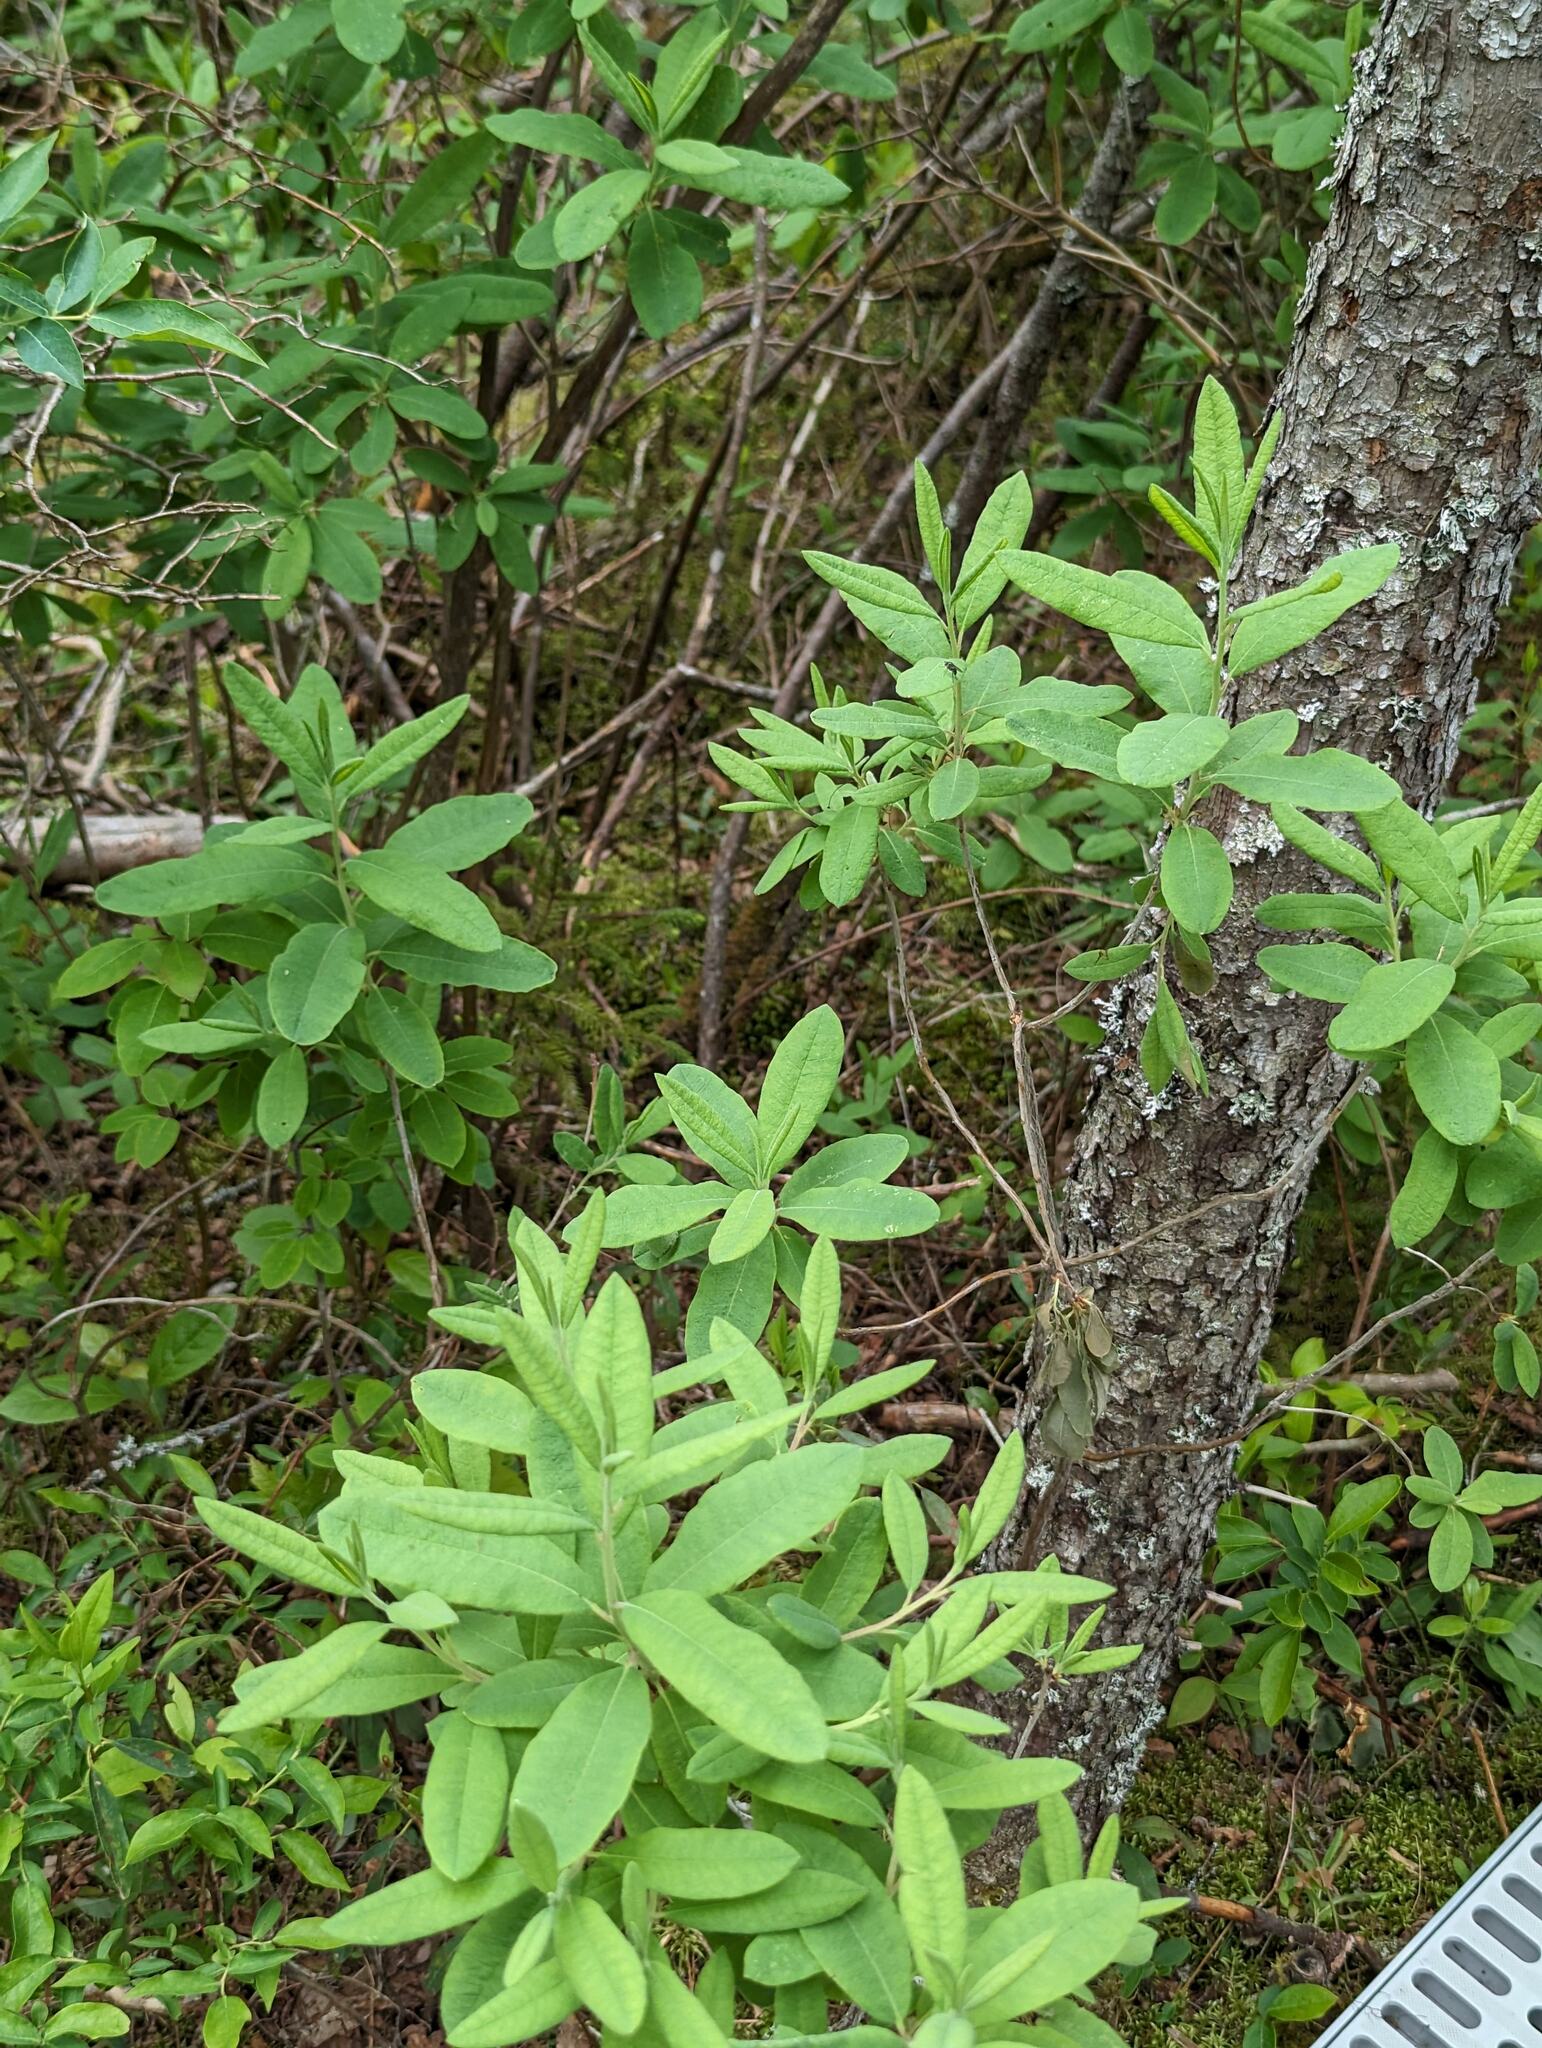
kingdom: Plantae
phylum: Tracheophyta
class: Magnoliopsida
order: Ericales
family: Ericaceae
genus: Rhododendron
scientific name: Rhododendron canadense
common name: Rhodora
